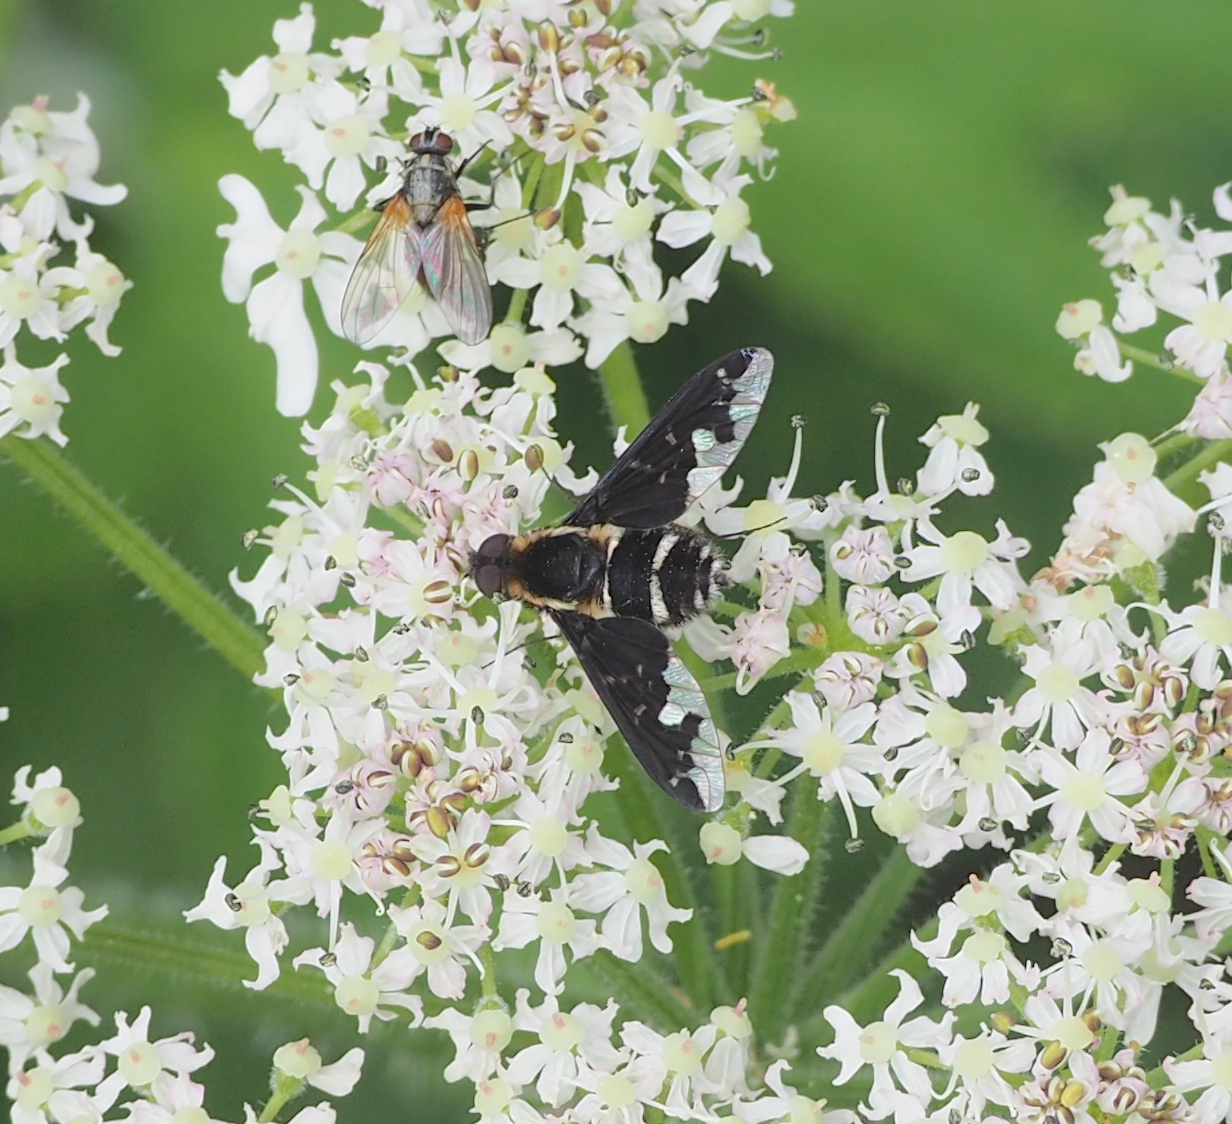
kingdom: Animalia
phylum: Arthropoda
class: Insecta
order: Diptera
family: Bombyliidae
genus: Hemipenthes
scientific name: Hemipenthes maura
